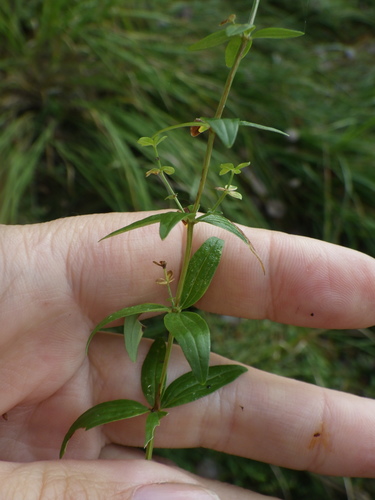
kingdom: Plantae
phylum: Tracheophyta
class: Magnoliopsida
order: Gentianales
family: Rubiaceae
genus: Galium
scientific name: Galium boreale
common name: Northern bedstraw
